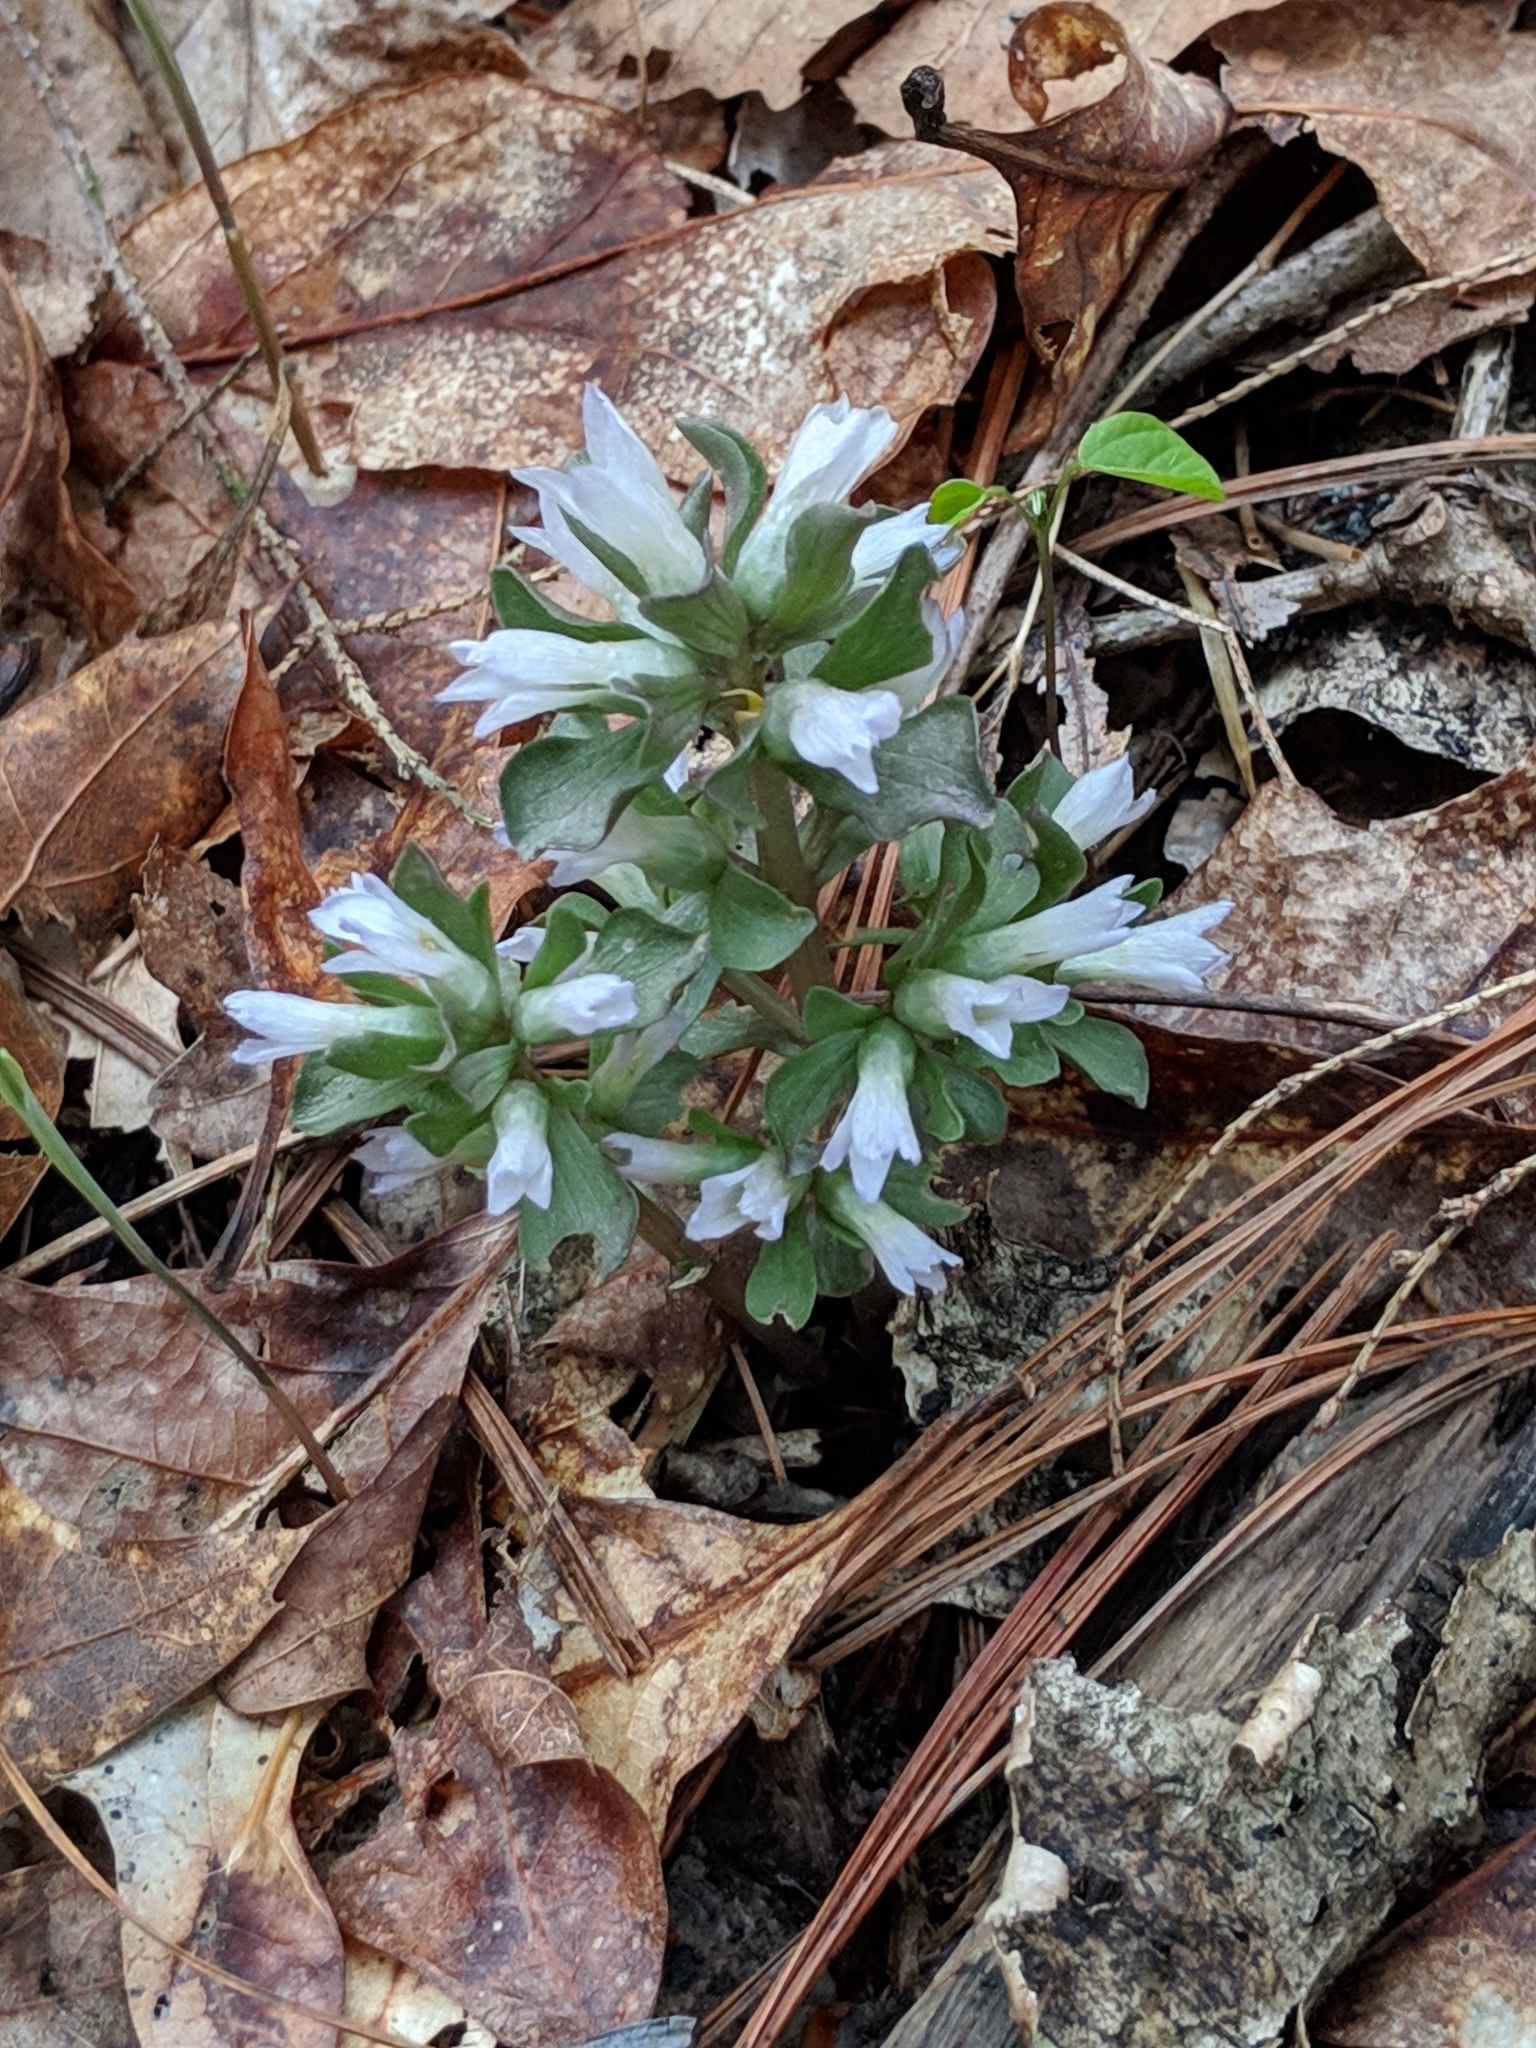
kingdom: Plantae
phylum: Tracheophyta
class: Magnoliopsida
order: Gentianales
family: Gentianaceae
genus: Obolaria
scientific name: Obolaria virginica
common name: Pennywort
